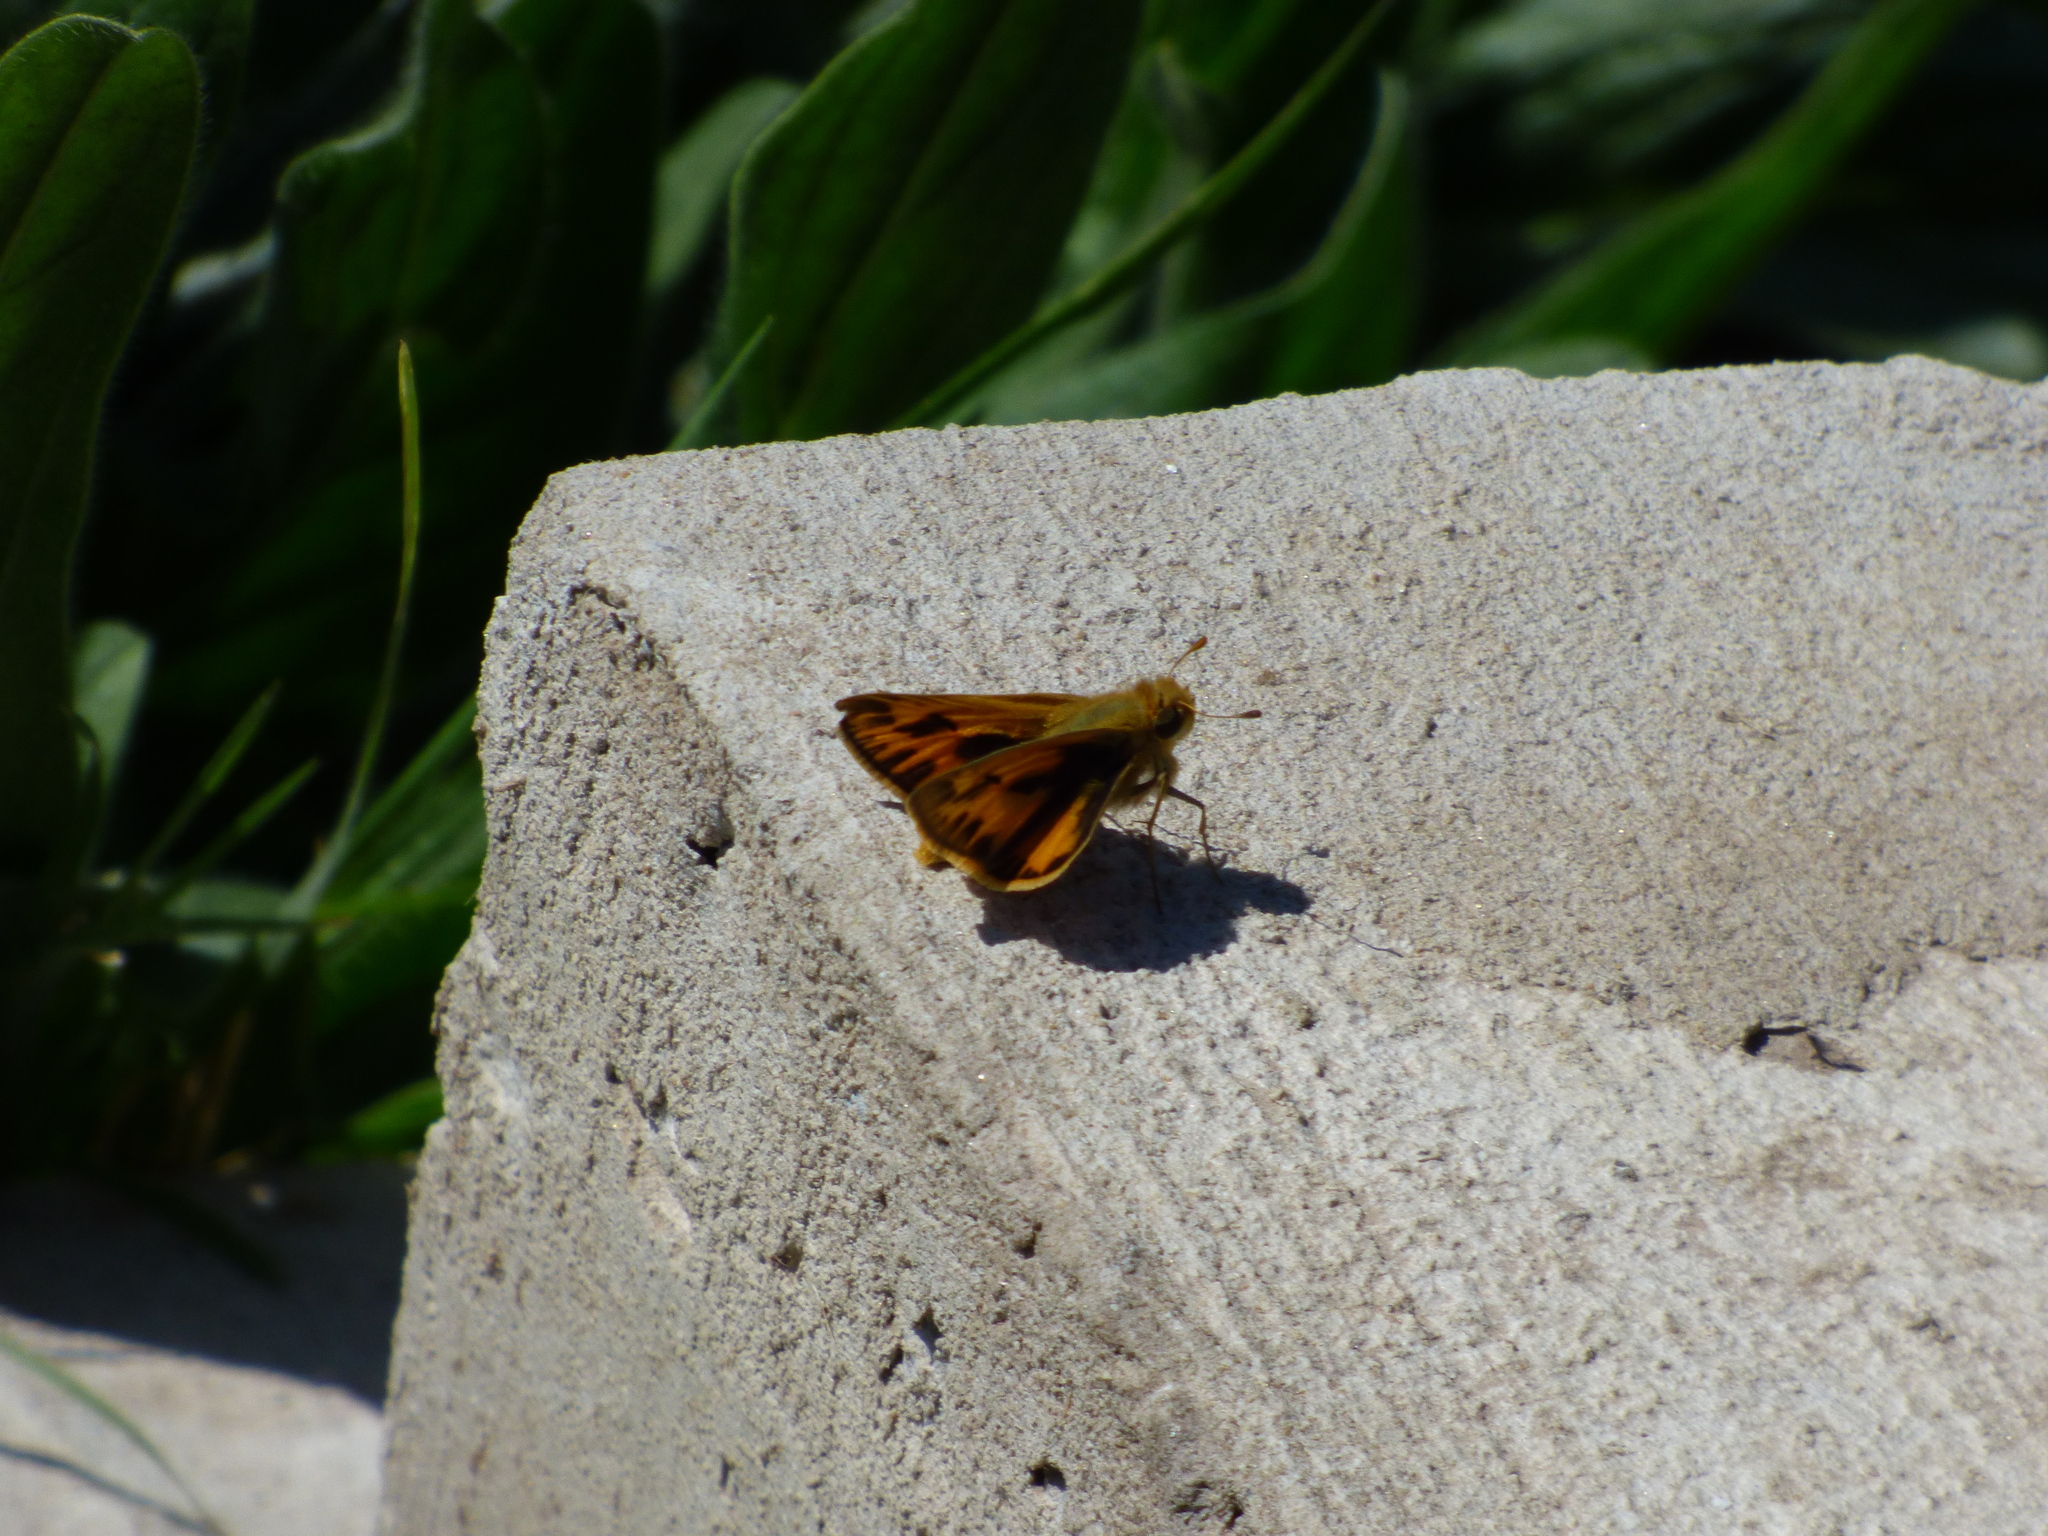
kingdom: Animalia
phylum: Arthropoda
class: Insecta
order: Lepidoptera
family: Hesperiidae
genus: Hylephila
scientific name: Hylephila phyleus
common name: Fiery skipper
